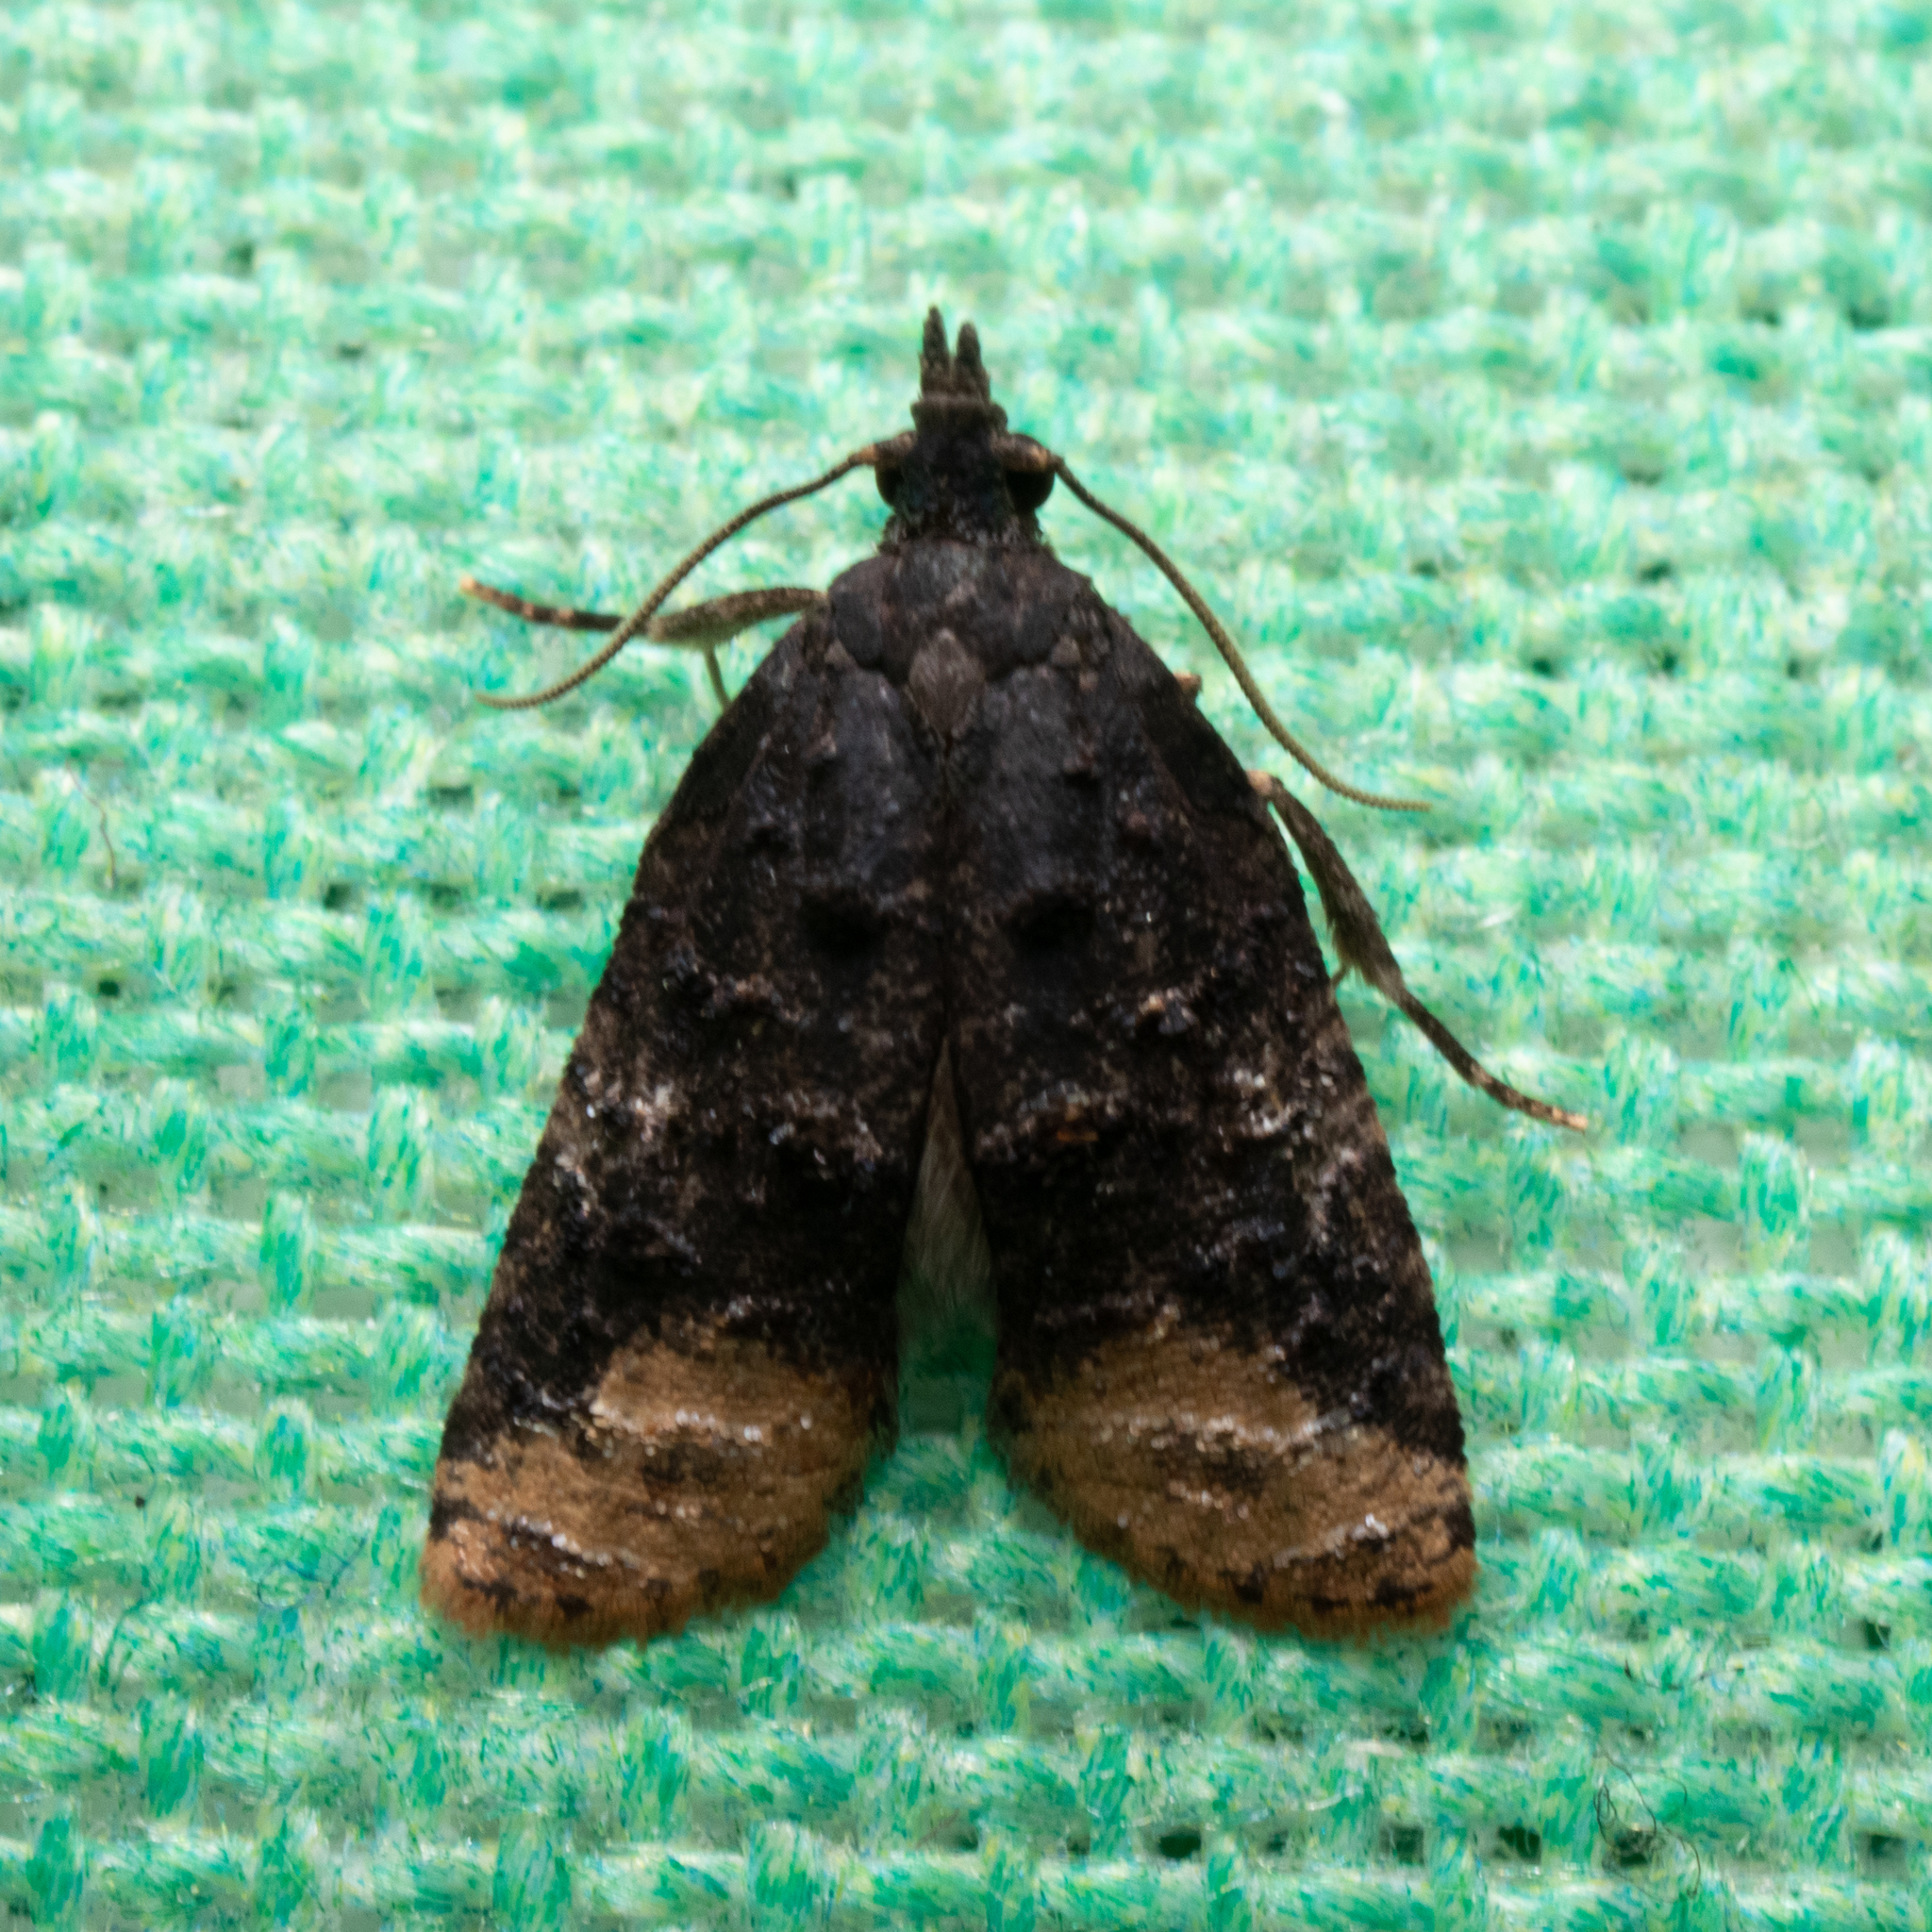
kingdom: Animalia
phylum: Arthropoda
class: Insecta
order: Lepidoptera
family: Tortricidae
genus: Platynota
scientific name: Platynota semiustana
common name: Singed platynota
